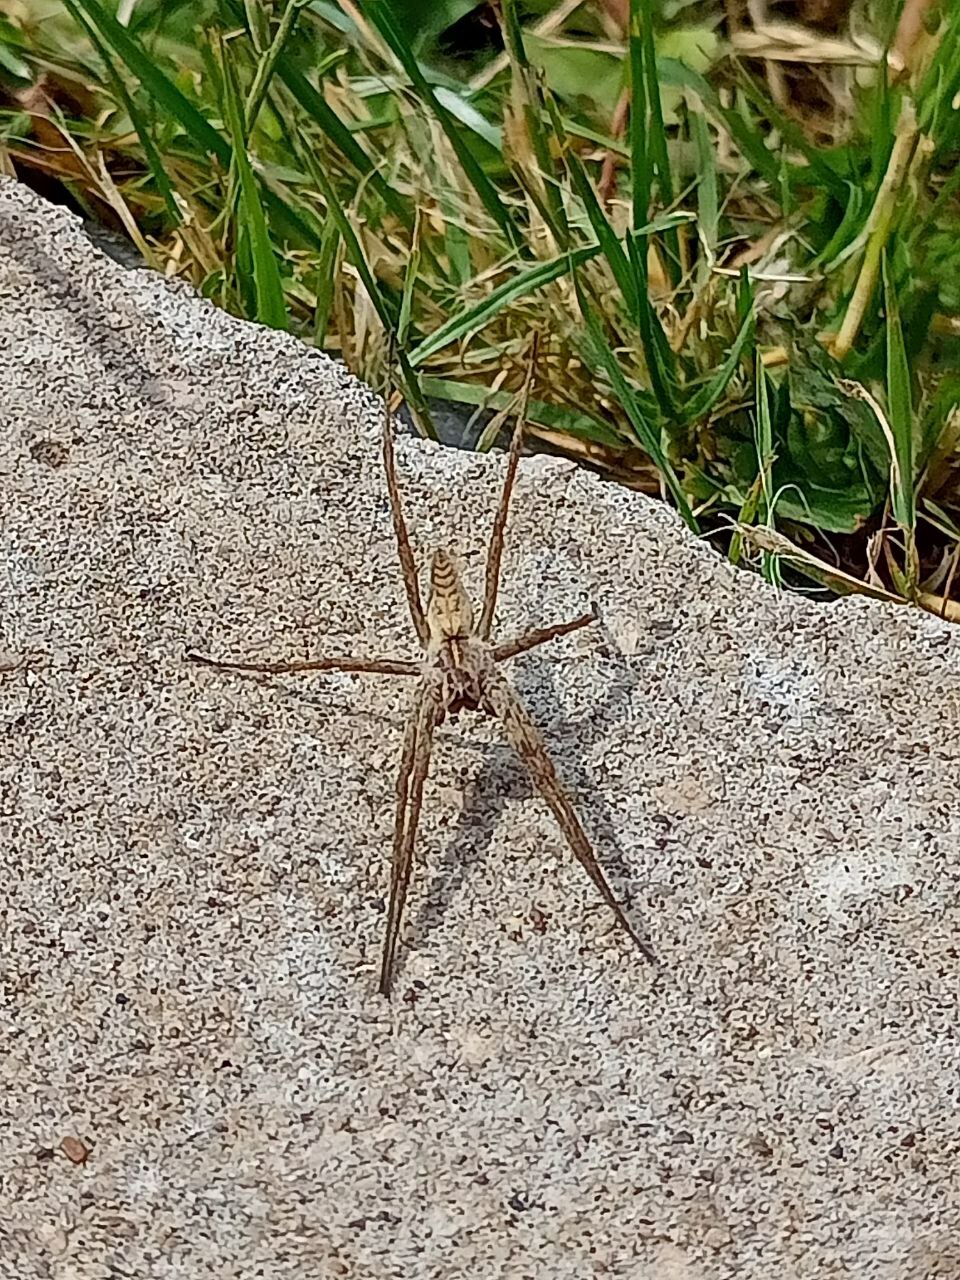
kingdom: Animalia
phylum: Arthropoda
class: Arachnida
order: Araneae
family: Pisauridae
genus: Pisaura
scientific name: Pisaura
